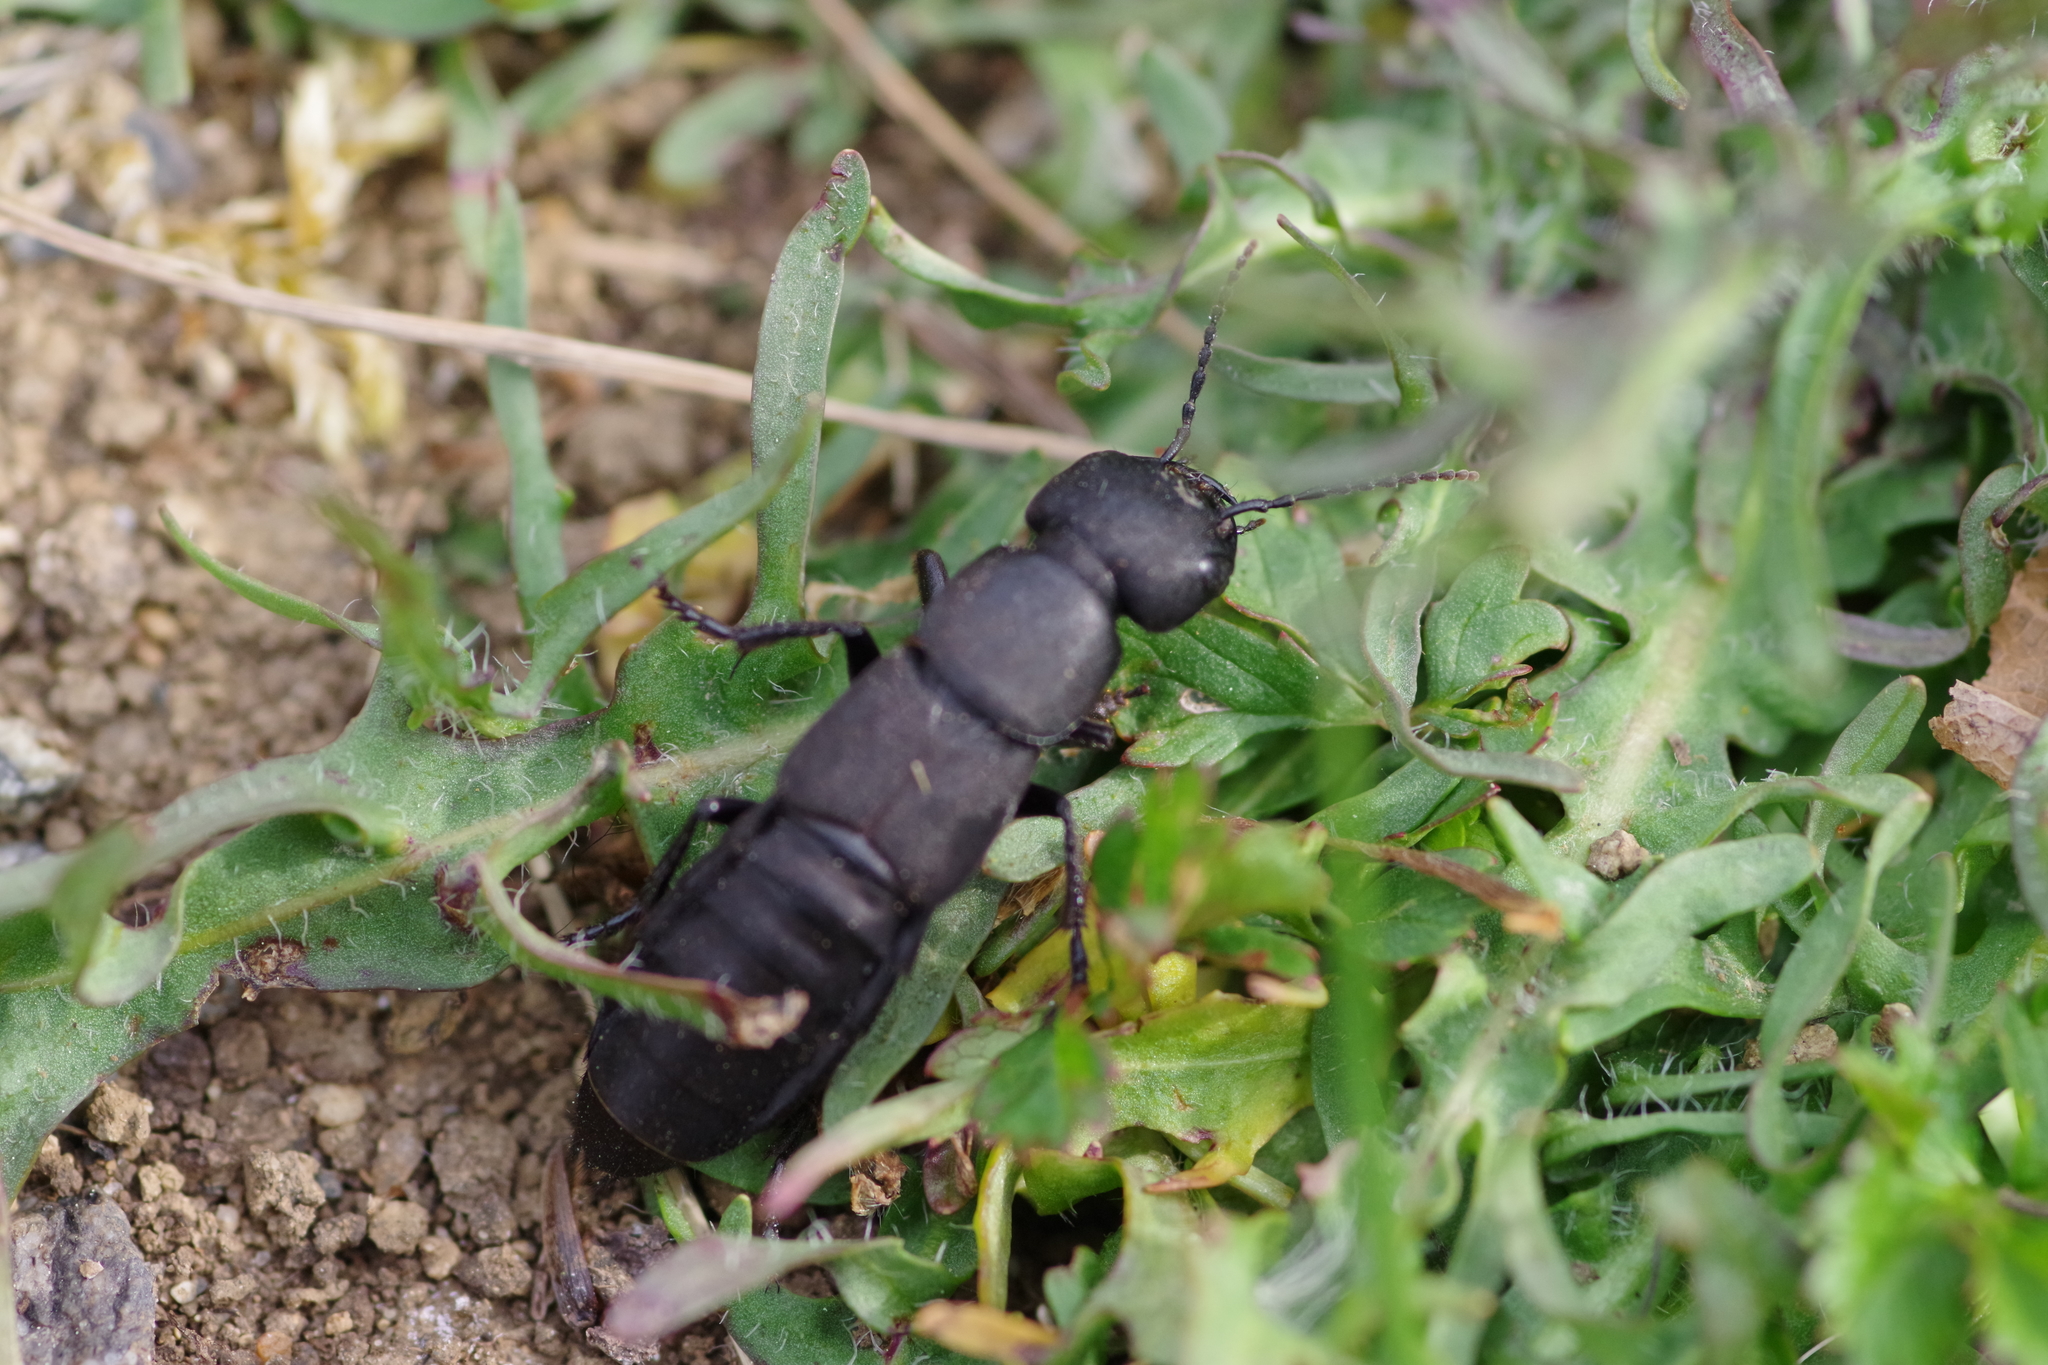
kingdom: Animalia
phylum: Arthropoda
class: Insecta
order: Coleoptera
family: Staphylinidae
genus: Ocypus
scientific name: Ocypus olens
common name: Devil's coach-horse
